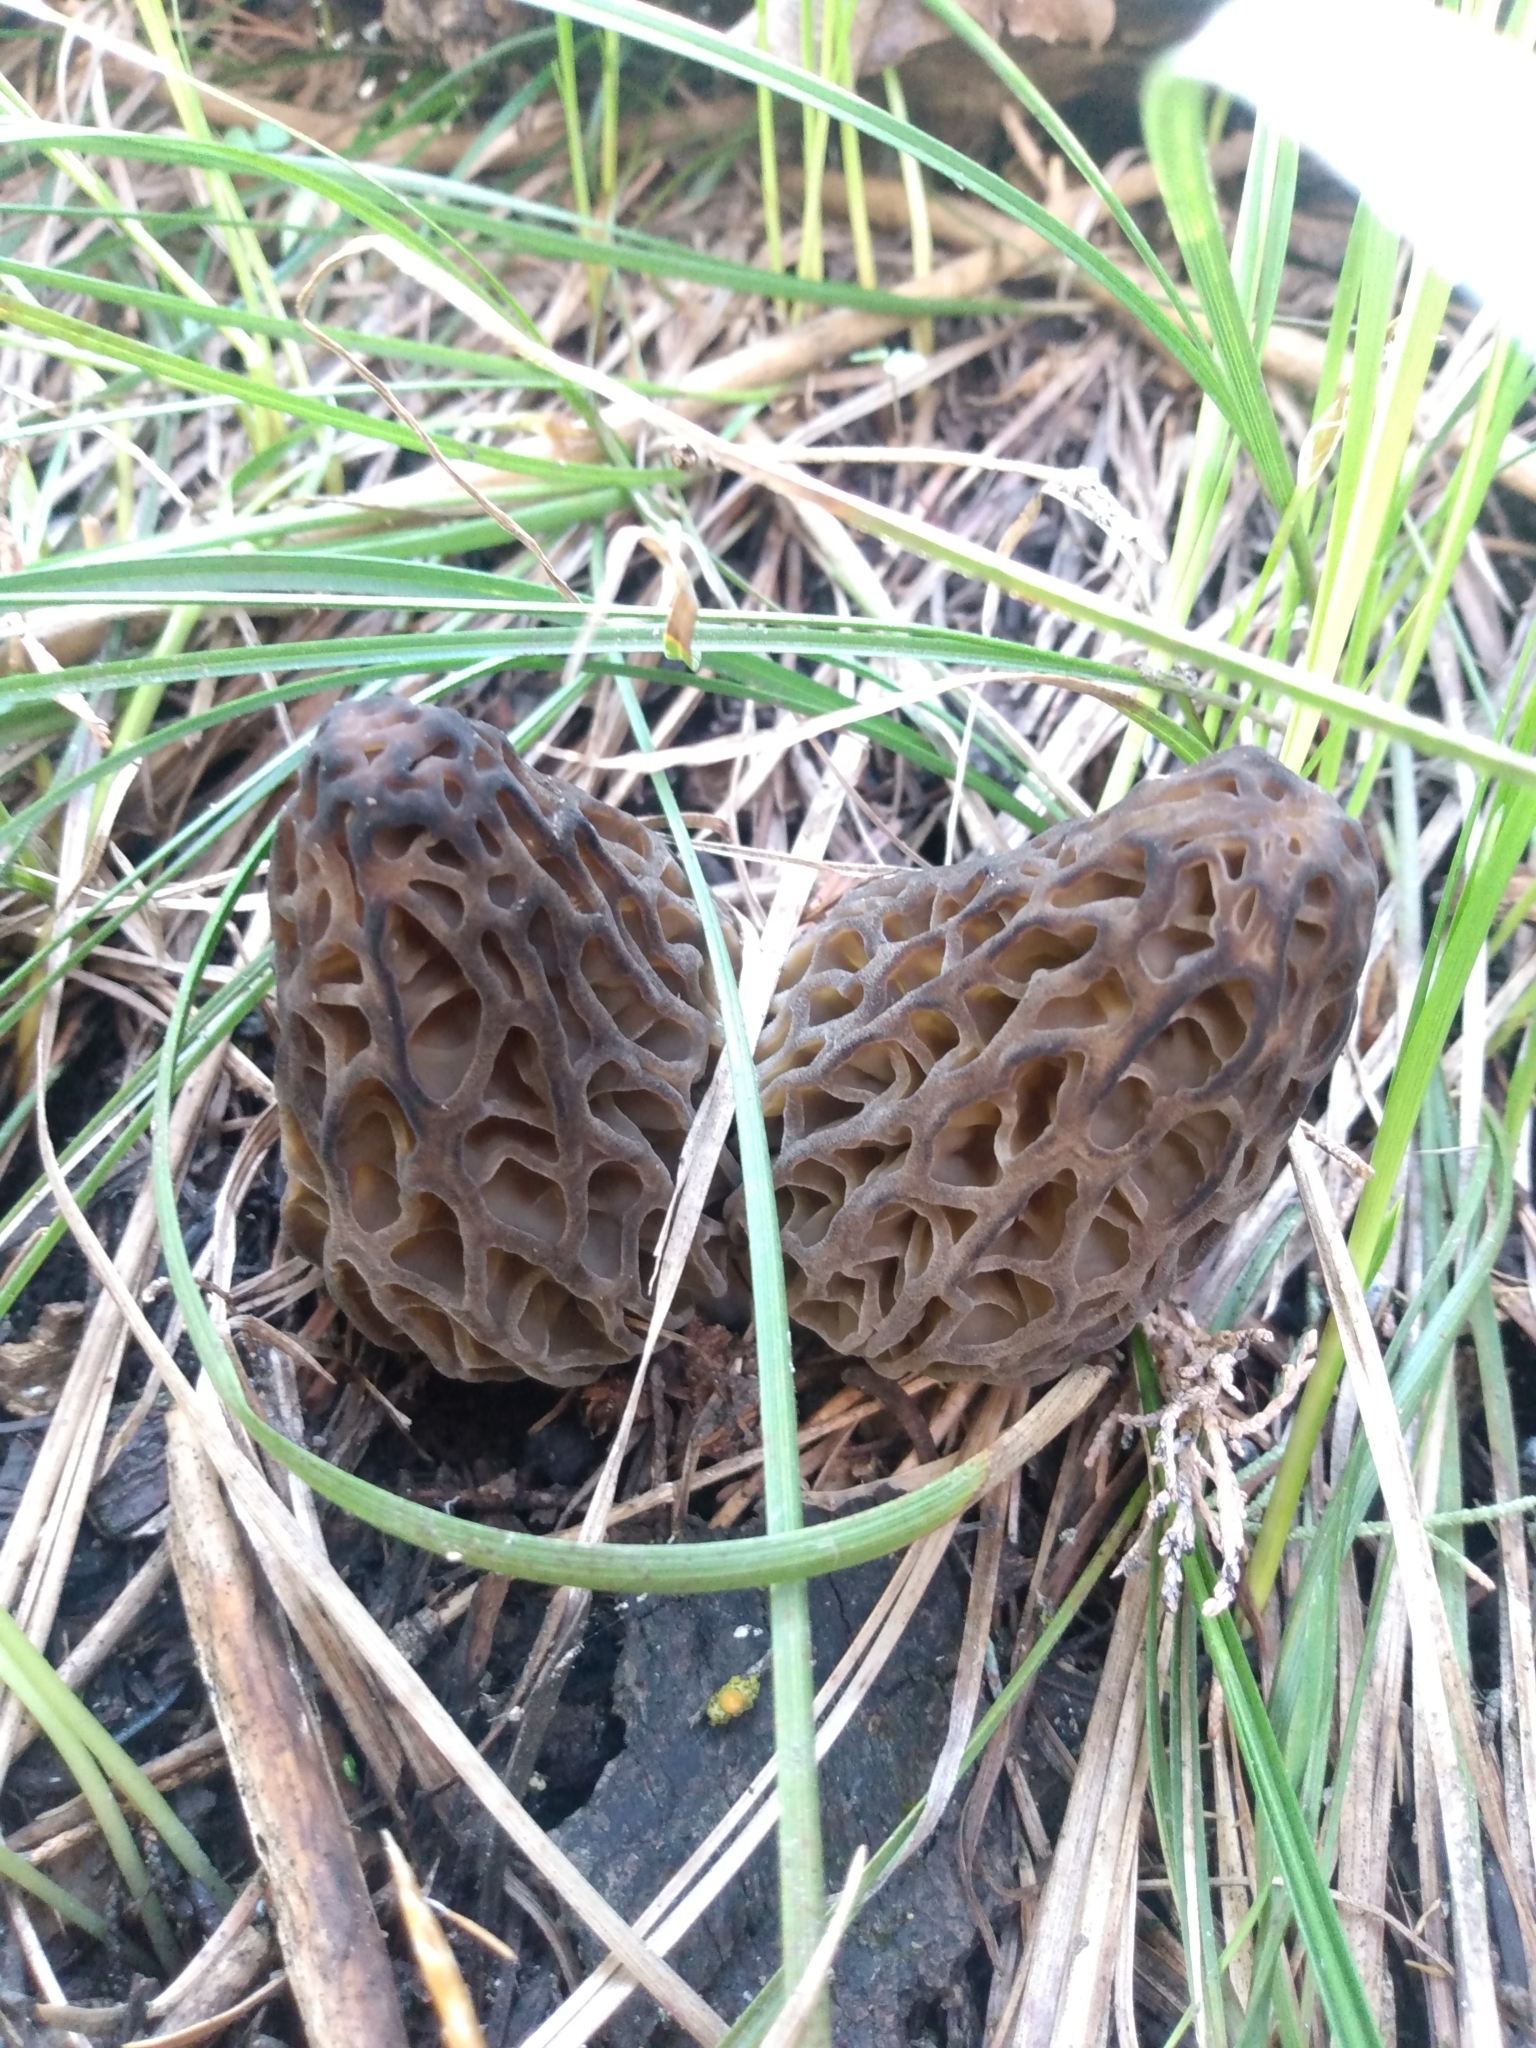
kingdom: Fungi
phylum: Ascomycota
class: Pezizomycetes
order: Pezizales
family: Morchellaceae
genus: Morchella
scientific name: Morchella snyderi
